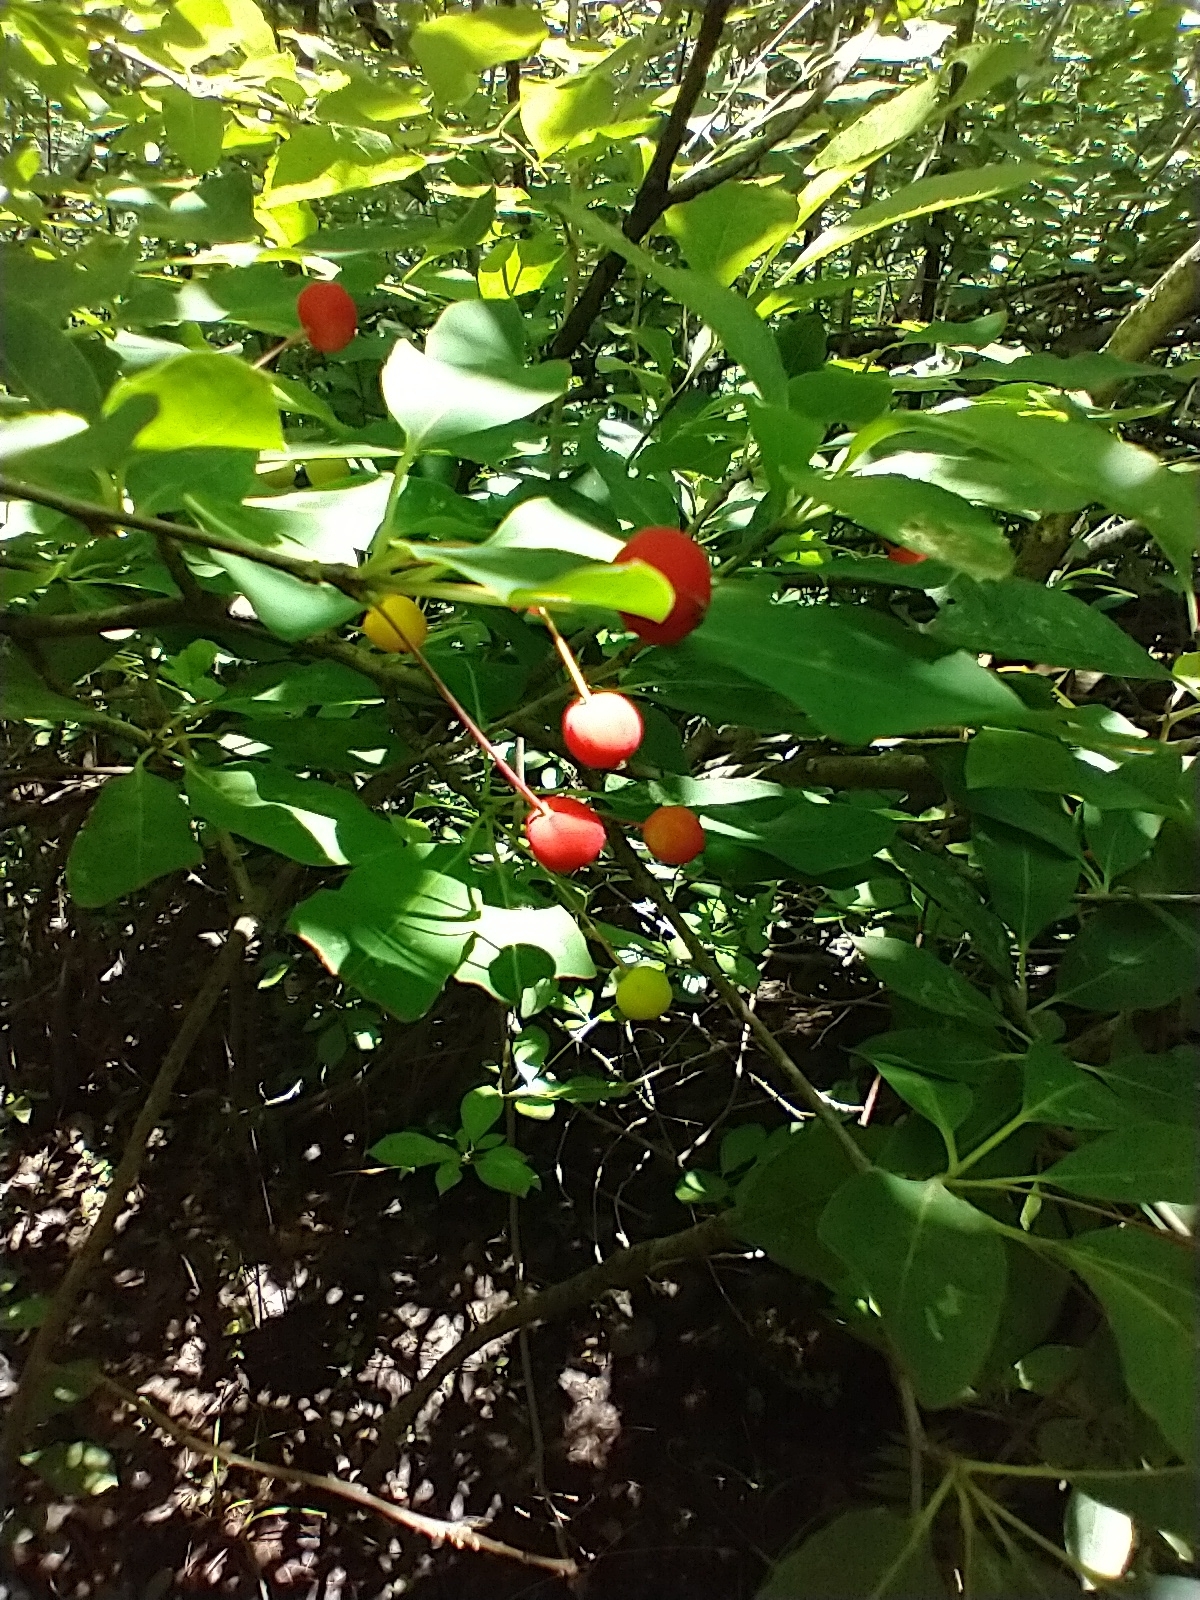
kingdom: Plantae
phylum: Tracheophyta
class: Magnoliopsida
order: Aquifoliales
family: Aquifoliaceae
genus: Ilex
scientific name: Ilex mucronata
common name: Catberry
